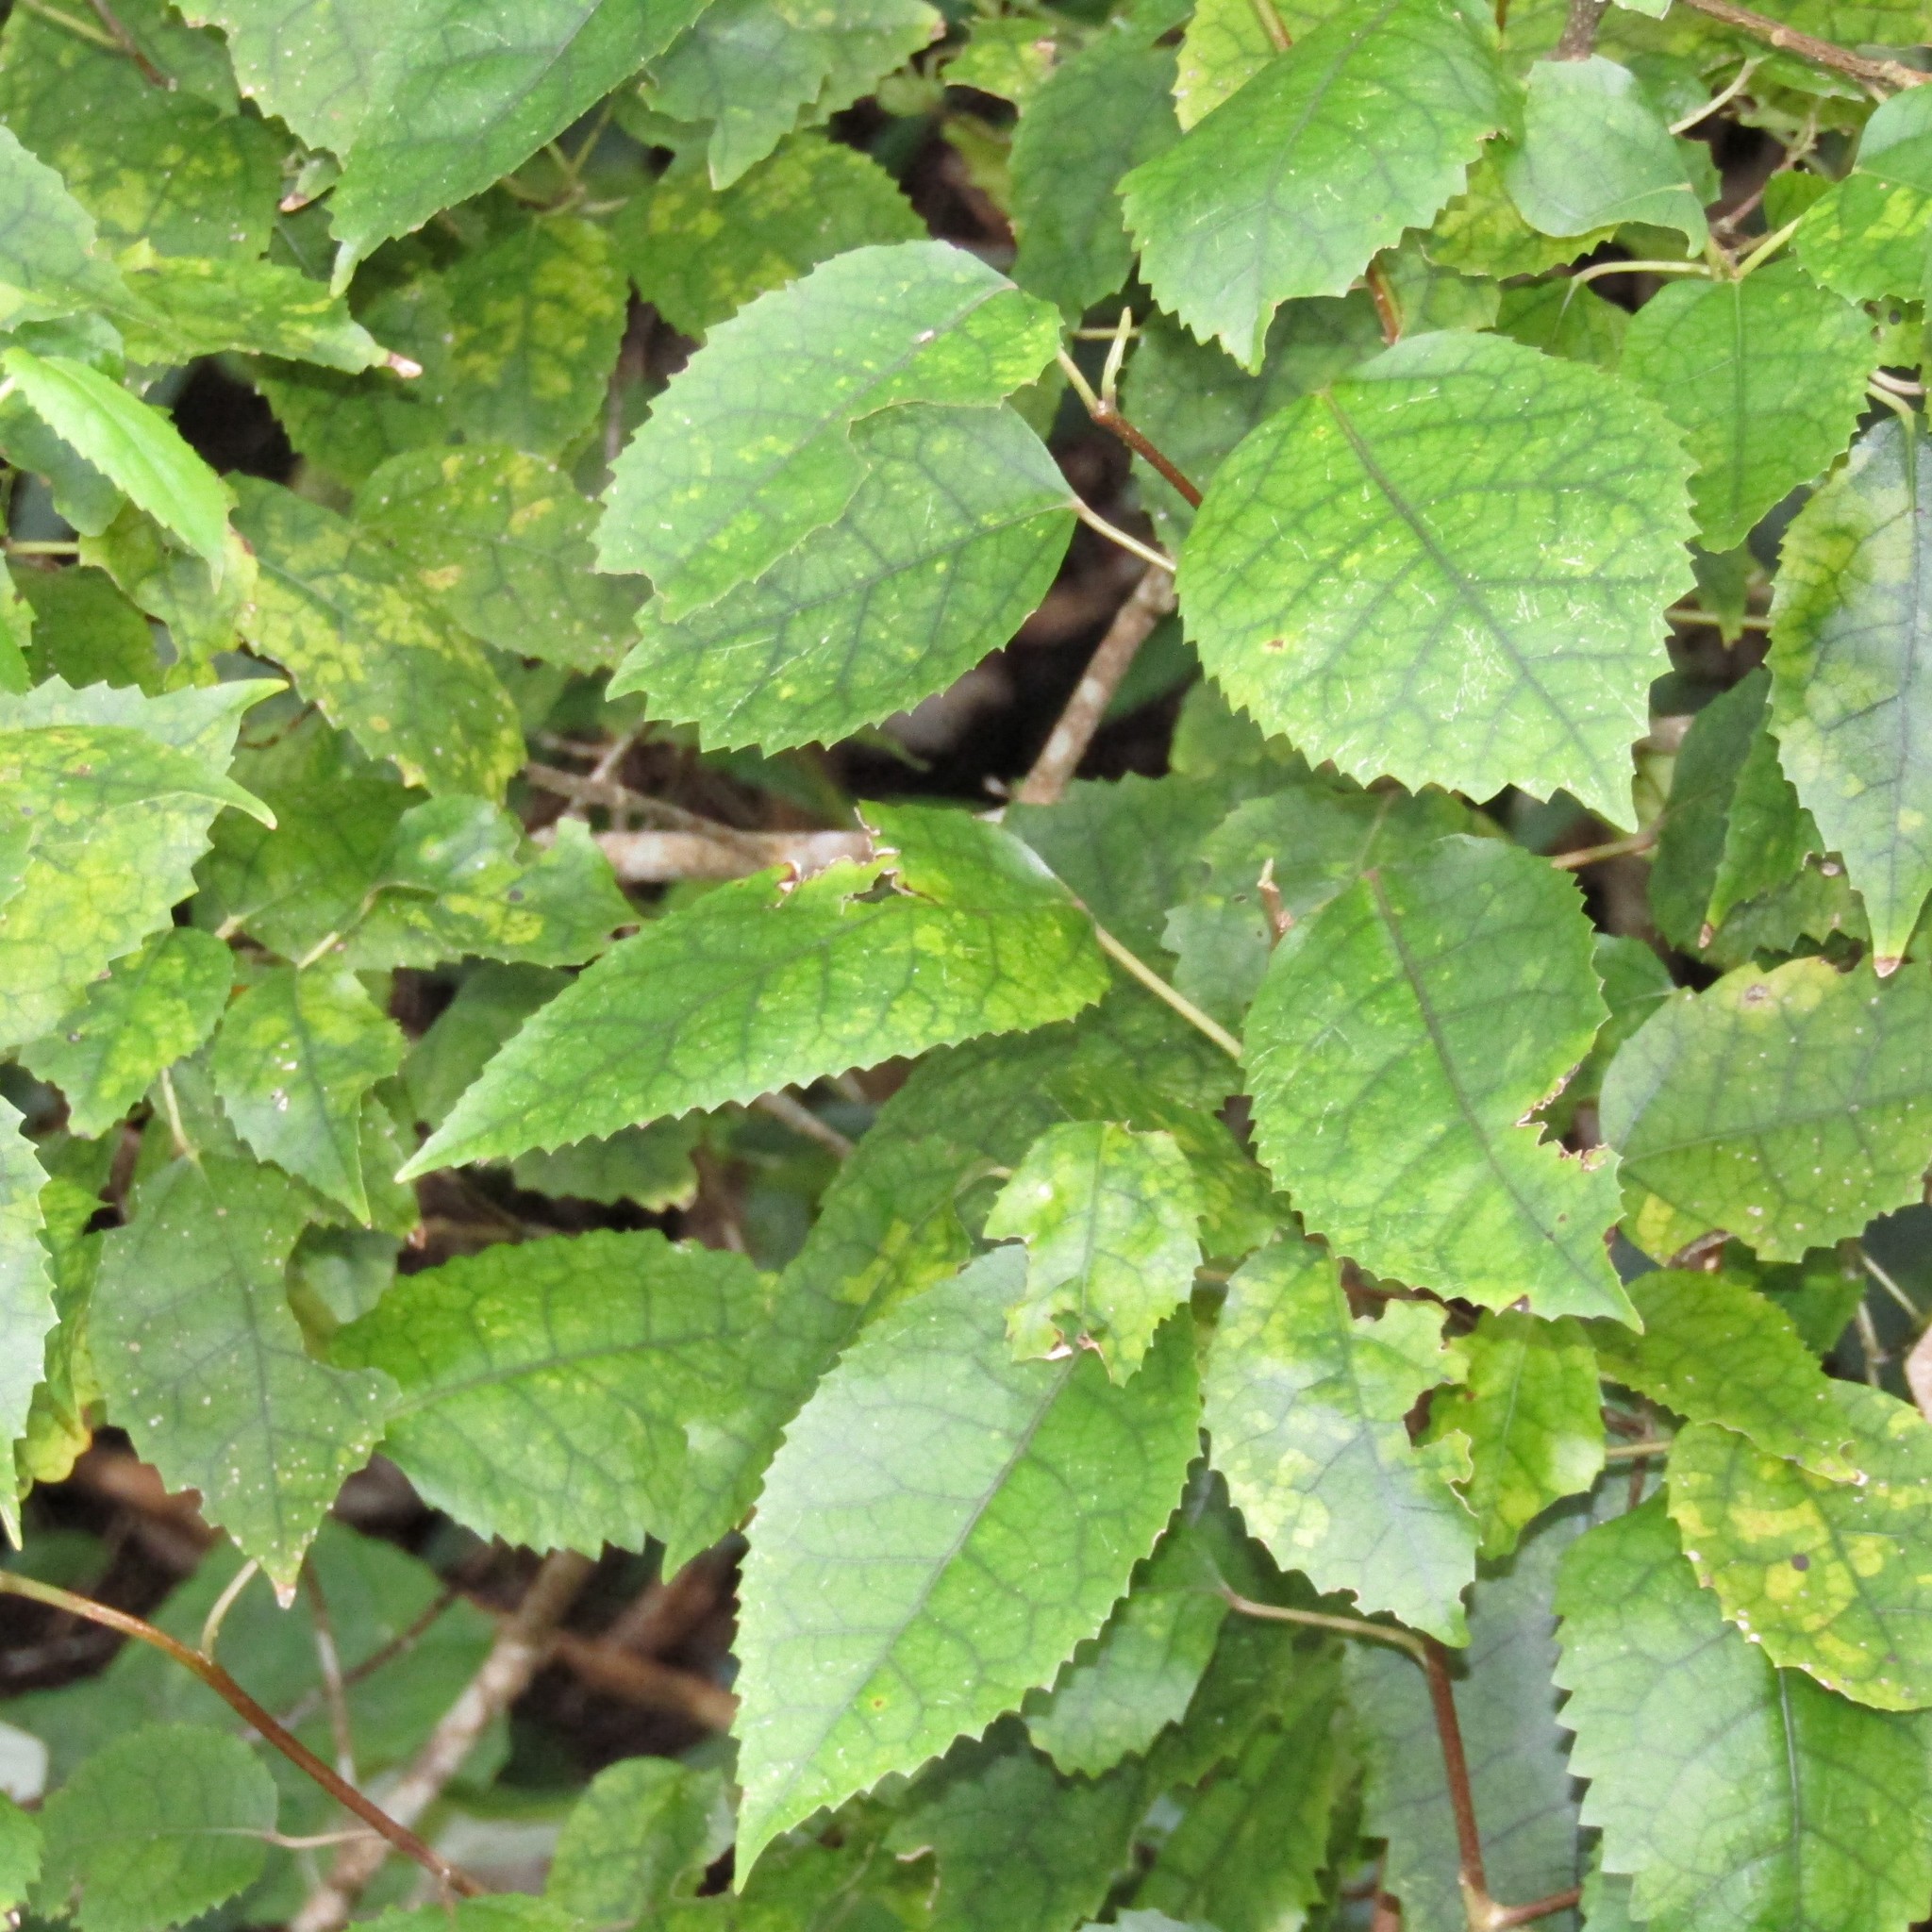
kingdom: Plantae
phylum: Tracheophyta
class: Magnoliopsida
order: Malvales
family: Malvaceae
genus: Hoheria
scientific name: Hoheria populnea
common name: Lacebark
